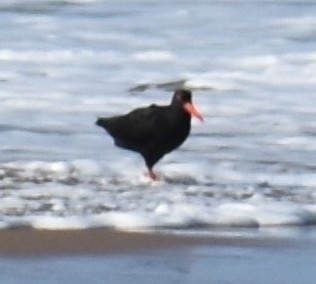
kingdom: Animalia
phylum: Chordata
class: Aves
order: Charadriiformes
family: Haematopodidae
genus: Haematopus
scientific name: Haematopus moquini
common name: African oystercatcher
